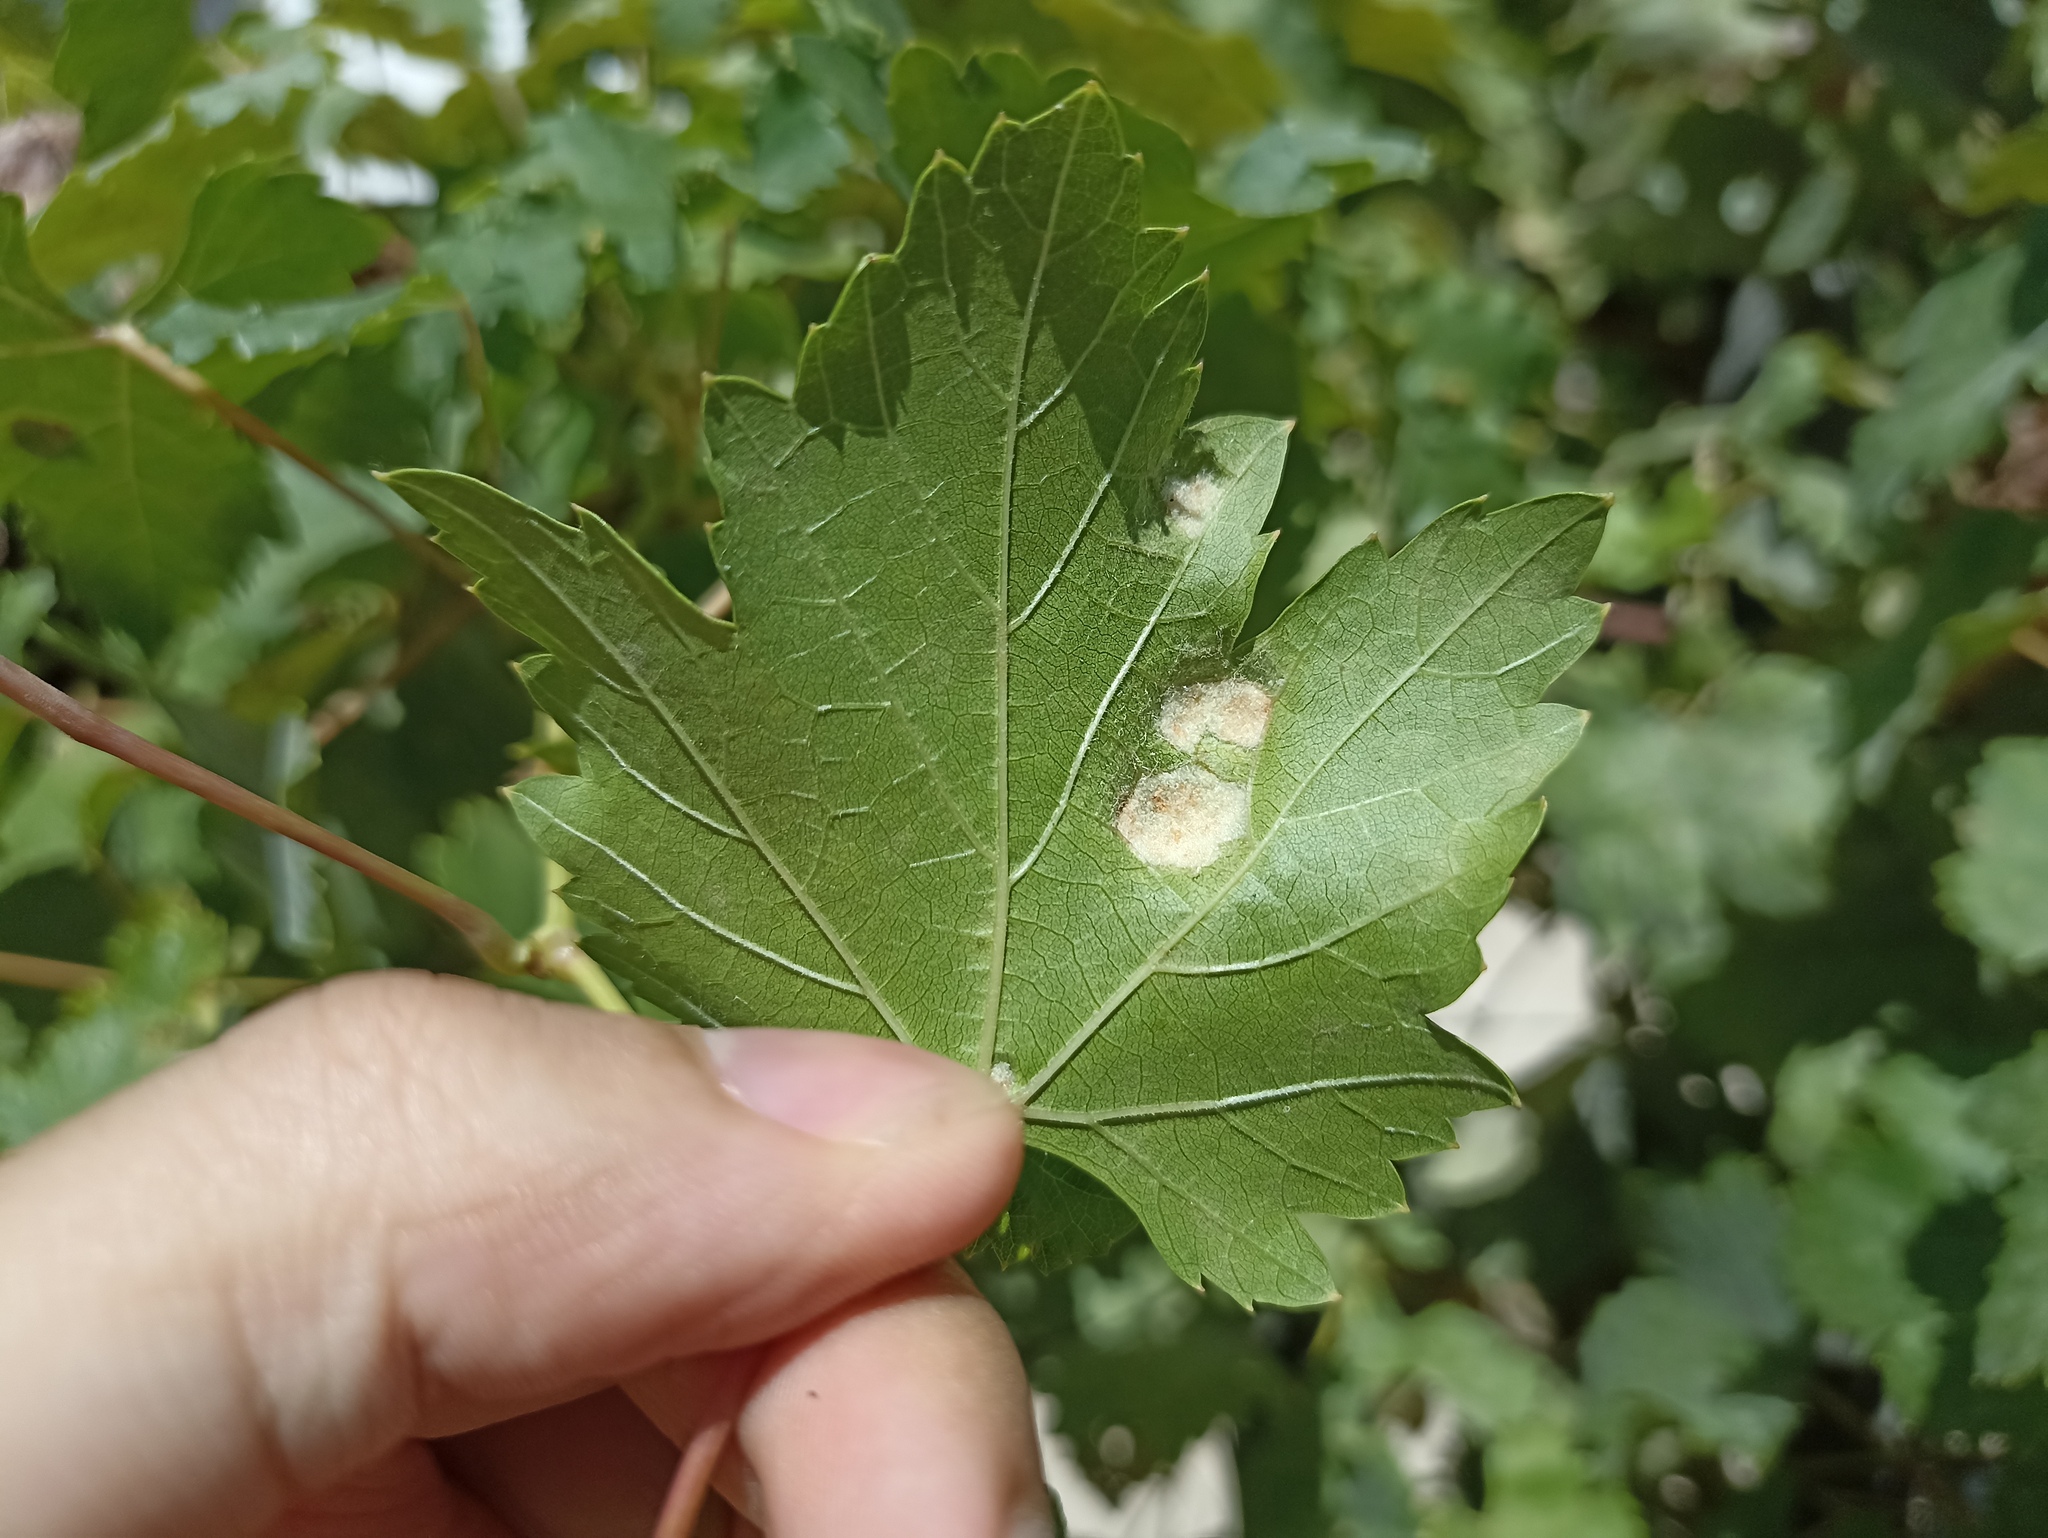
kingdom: Animalia
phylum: Arthropoda
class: Arachnida
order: Trombidiformes
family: Eriophyidae
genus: Colomerus
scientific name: Colomerus vitis
